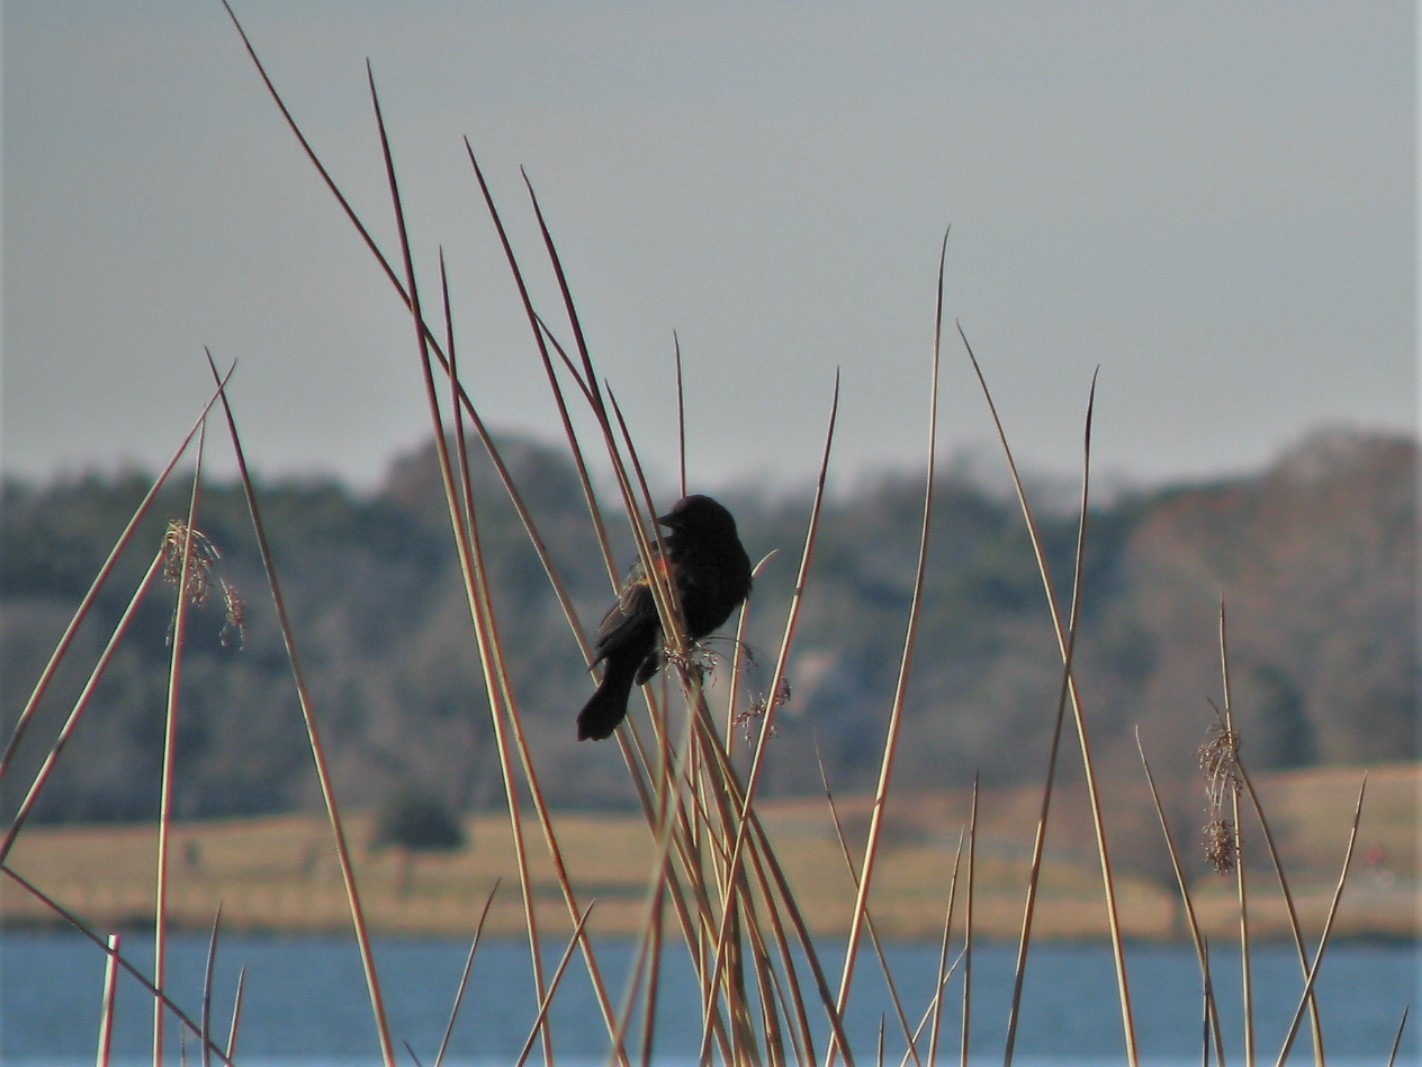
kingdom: Animalia
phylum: Chordata
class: Aves
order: Passeriformes
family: Icteridae
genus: Agelaius
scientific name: Agelaius phoeniceus
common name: Red-winged blackbird
